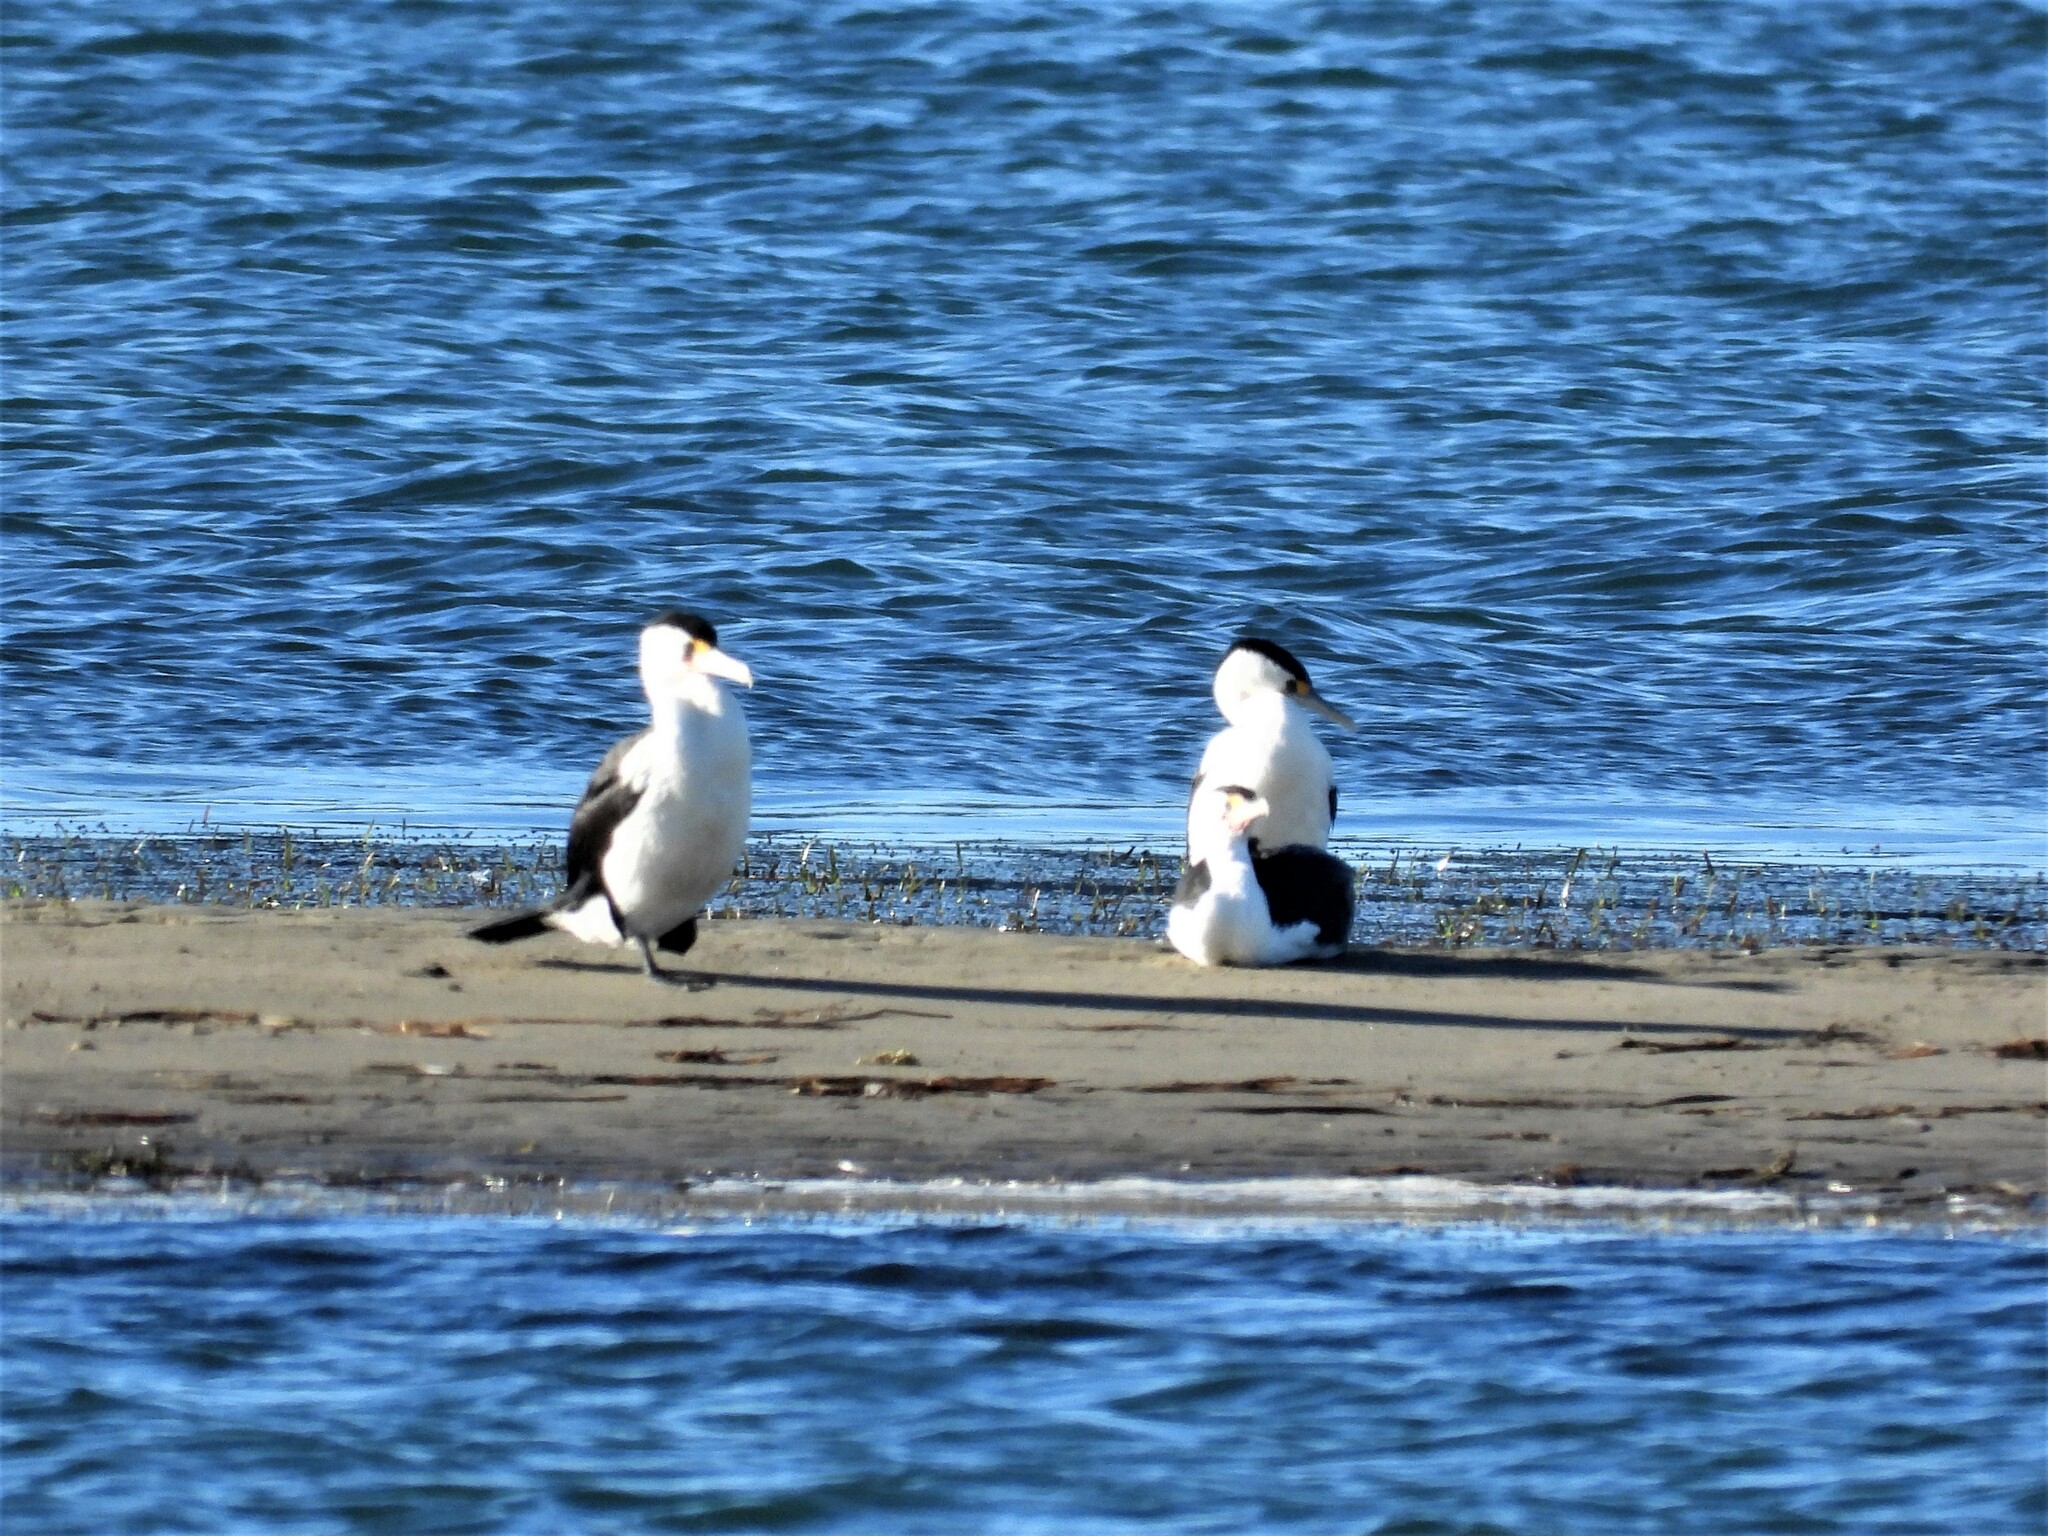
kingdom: Animalia
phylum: Chordata
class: Aves
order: Suliformes
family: Phalacrocoracidae
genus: Phalacrocorax
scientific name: Phalacrocorax varius
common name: Pied cormorant
